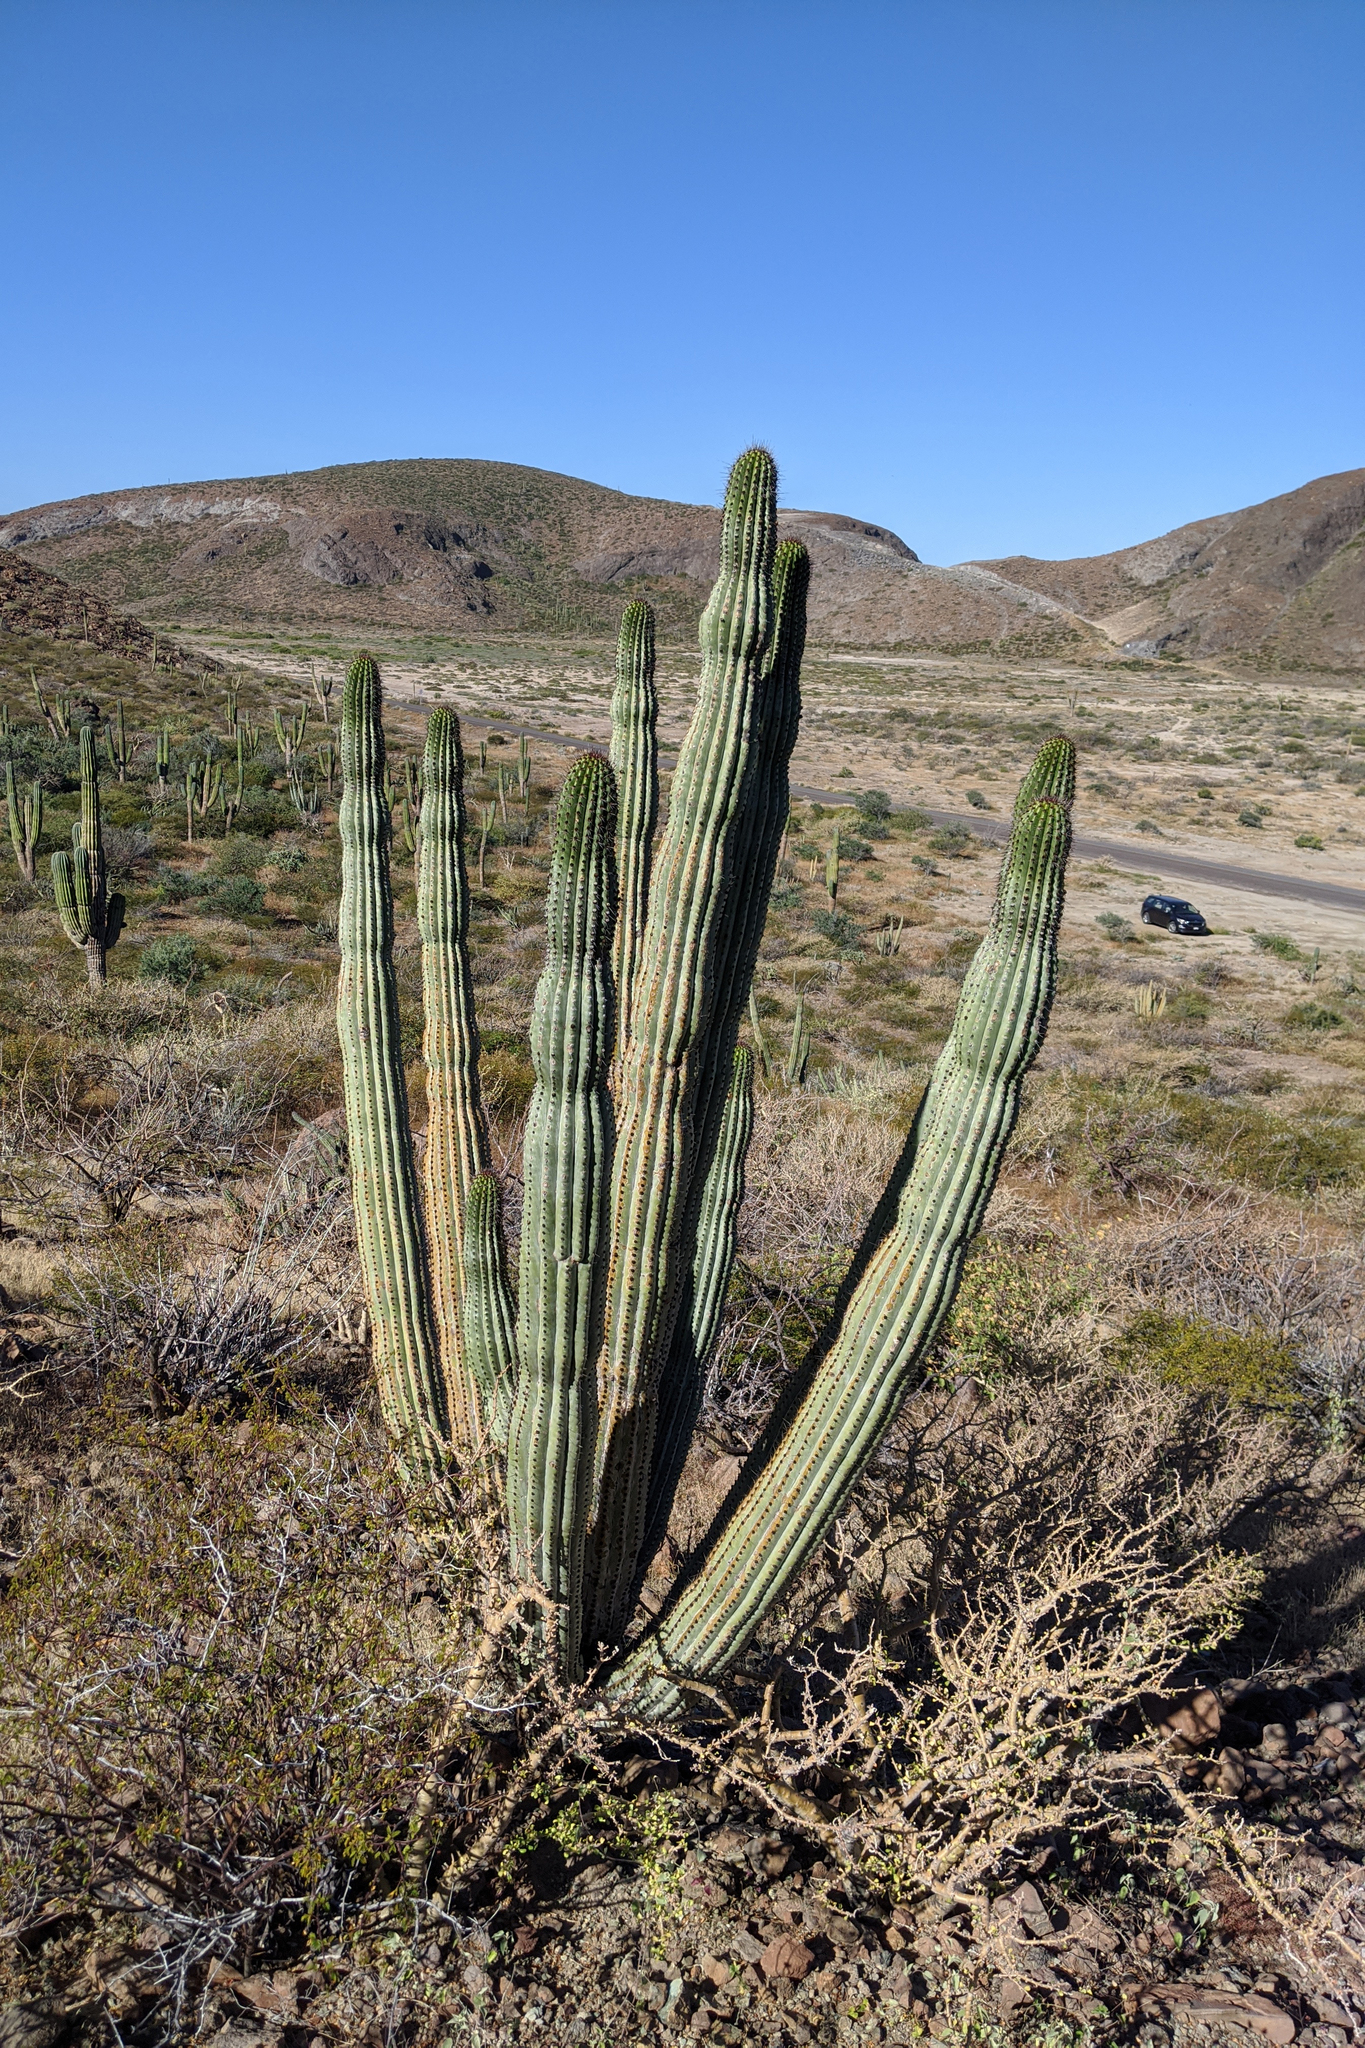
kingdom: Plantae
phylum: Tracheophyta
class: Magnoliopsida
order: Caryophyllales
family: Cactaceae
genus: Stenocereus
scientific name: Stenocereus thurberi
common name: Organ pipe cactus
